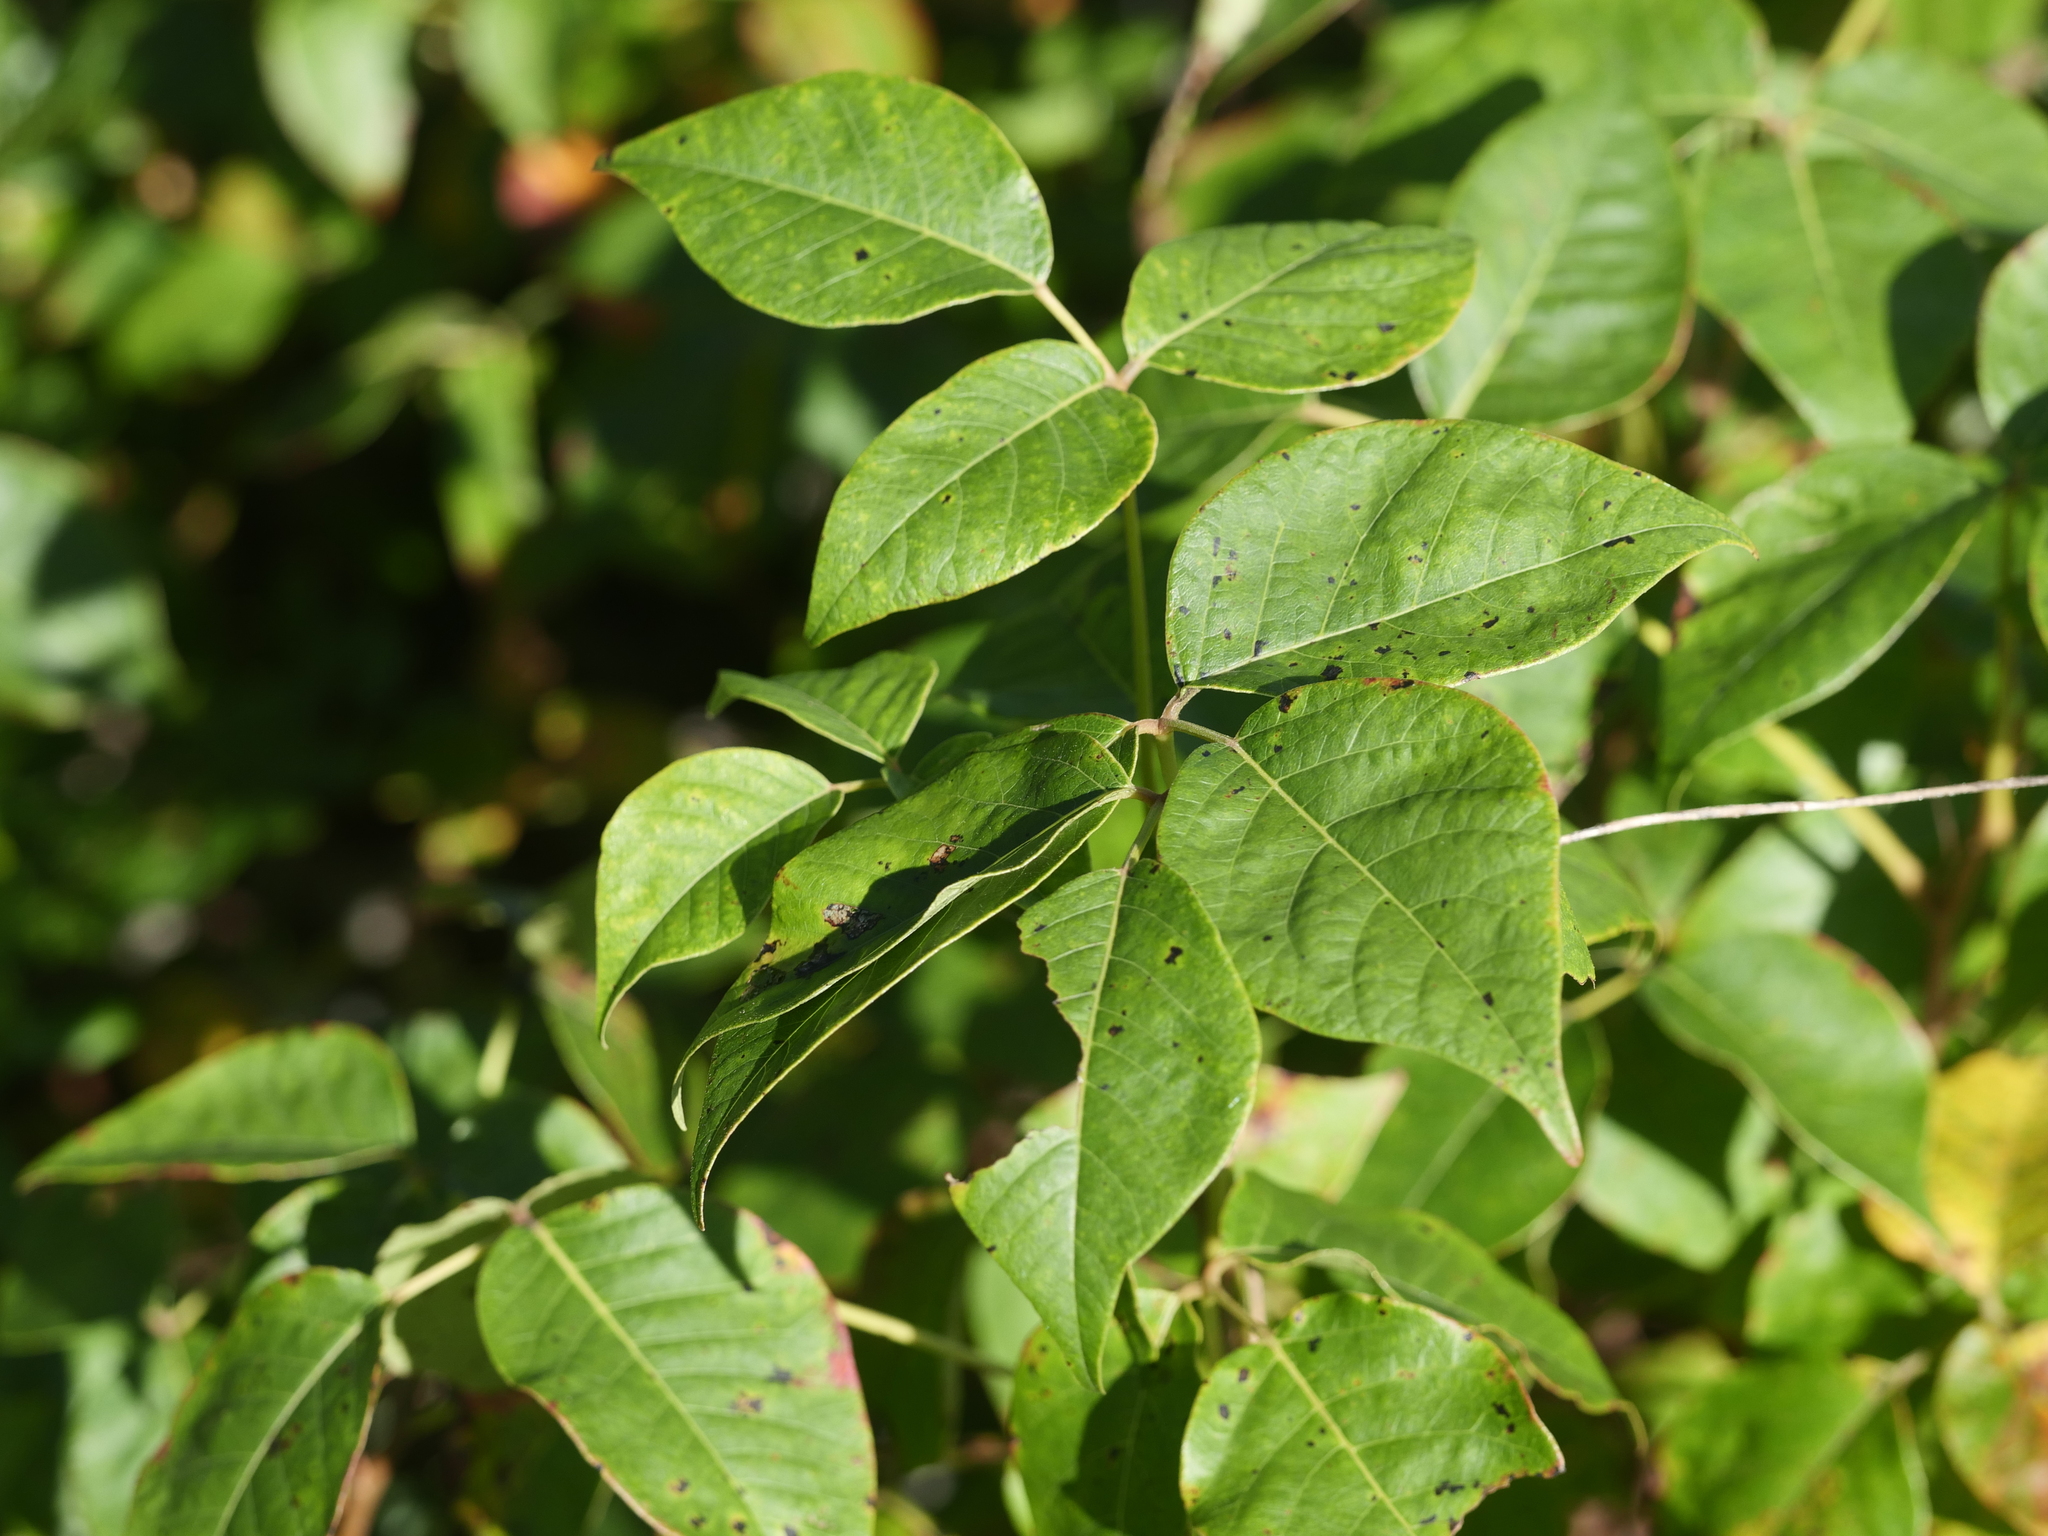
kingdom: Plantae
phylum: Tracheophyta
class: Magnoliopsida
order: Sapindales
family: Anacardiaceae
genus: Toxicodendron
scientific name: Toxicodendron radicans
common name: Poison ivy
